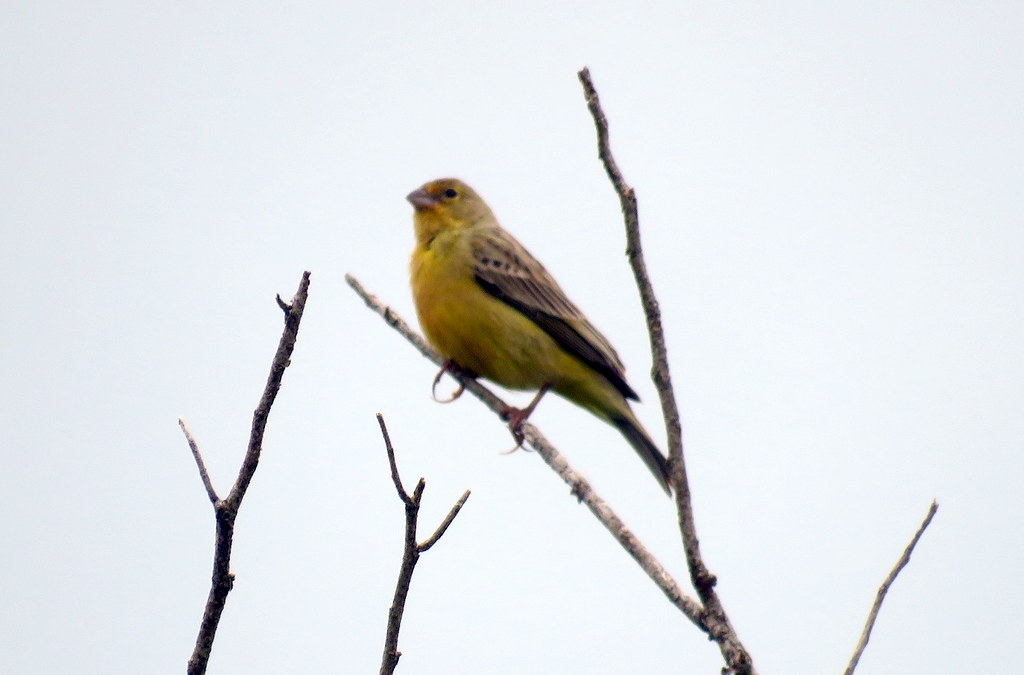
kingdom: Animalia
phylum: Chordata
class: Aves
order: Passeriformes
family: Thraupidae
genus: Sicalis
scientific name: Sicalis luteola
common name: Grassland yellow-finch
